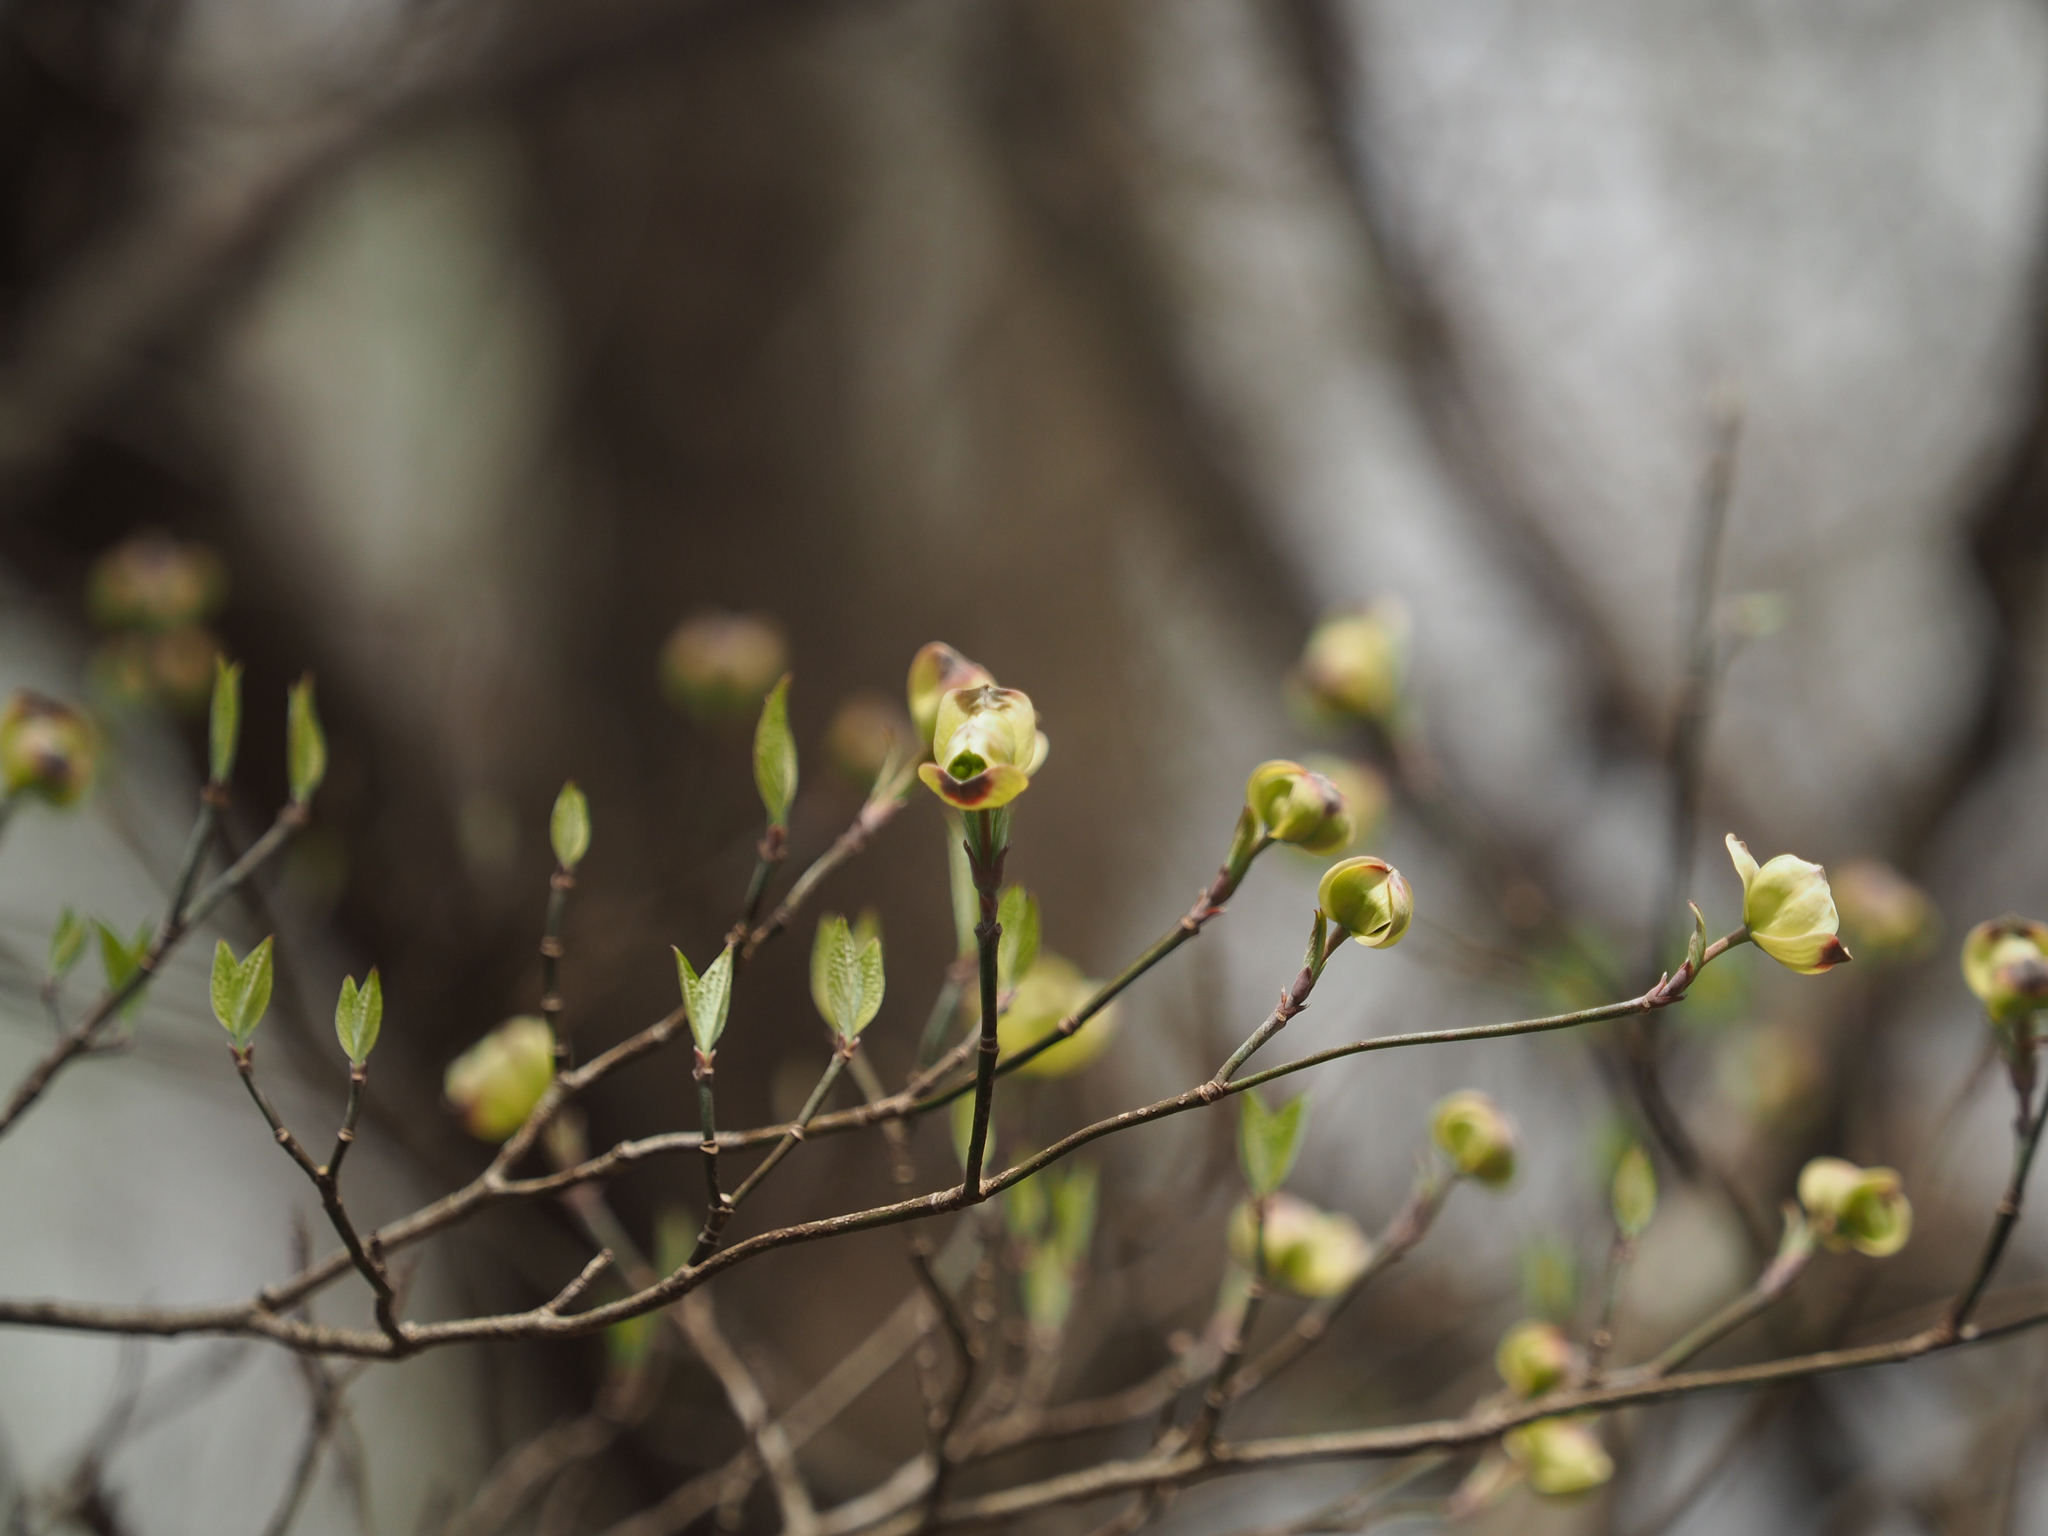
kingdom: Plantae
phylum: Tracheophyta
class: Magnoliopsida
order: Cornales
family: Cornaceae
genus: Cornus
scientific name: Cornus florida
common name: Flowering dogwood
